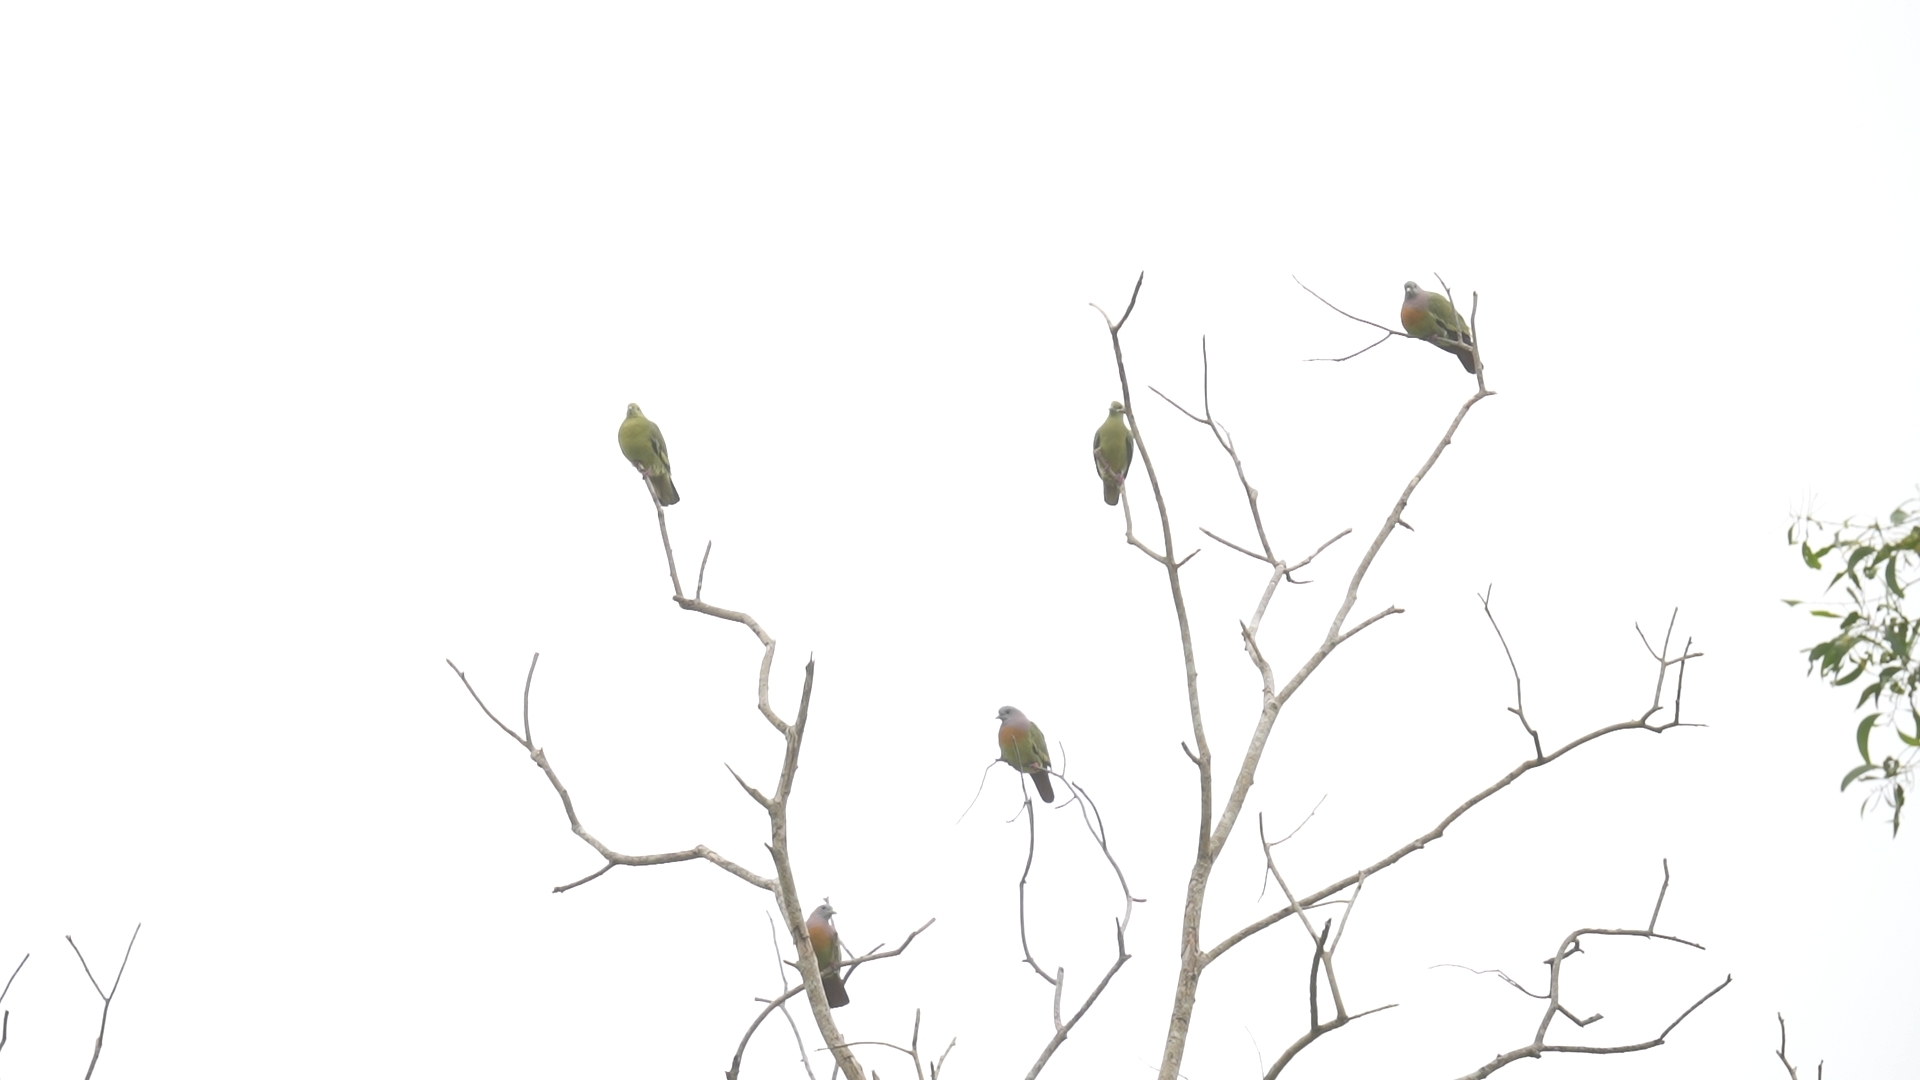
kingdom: Animalia
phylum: Chordata
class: Aves
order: Columbiformes
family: Columbidae
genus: Treron
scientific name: Treron vernans
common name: Pink-necked green pigeon
